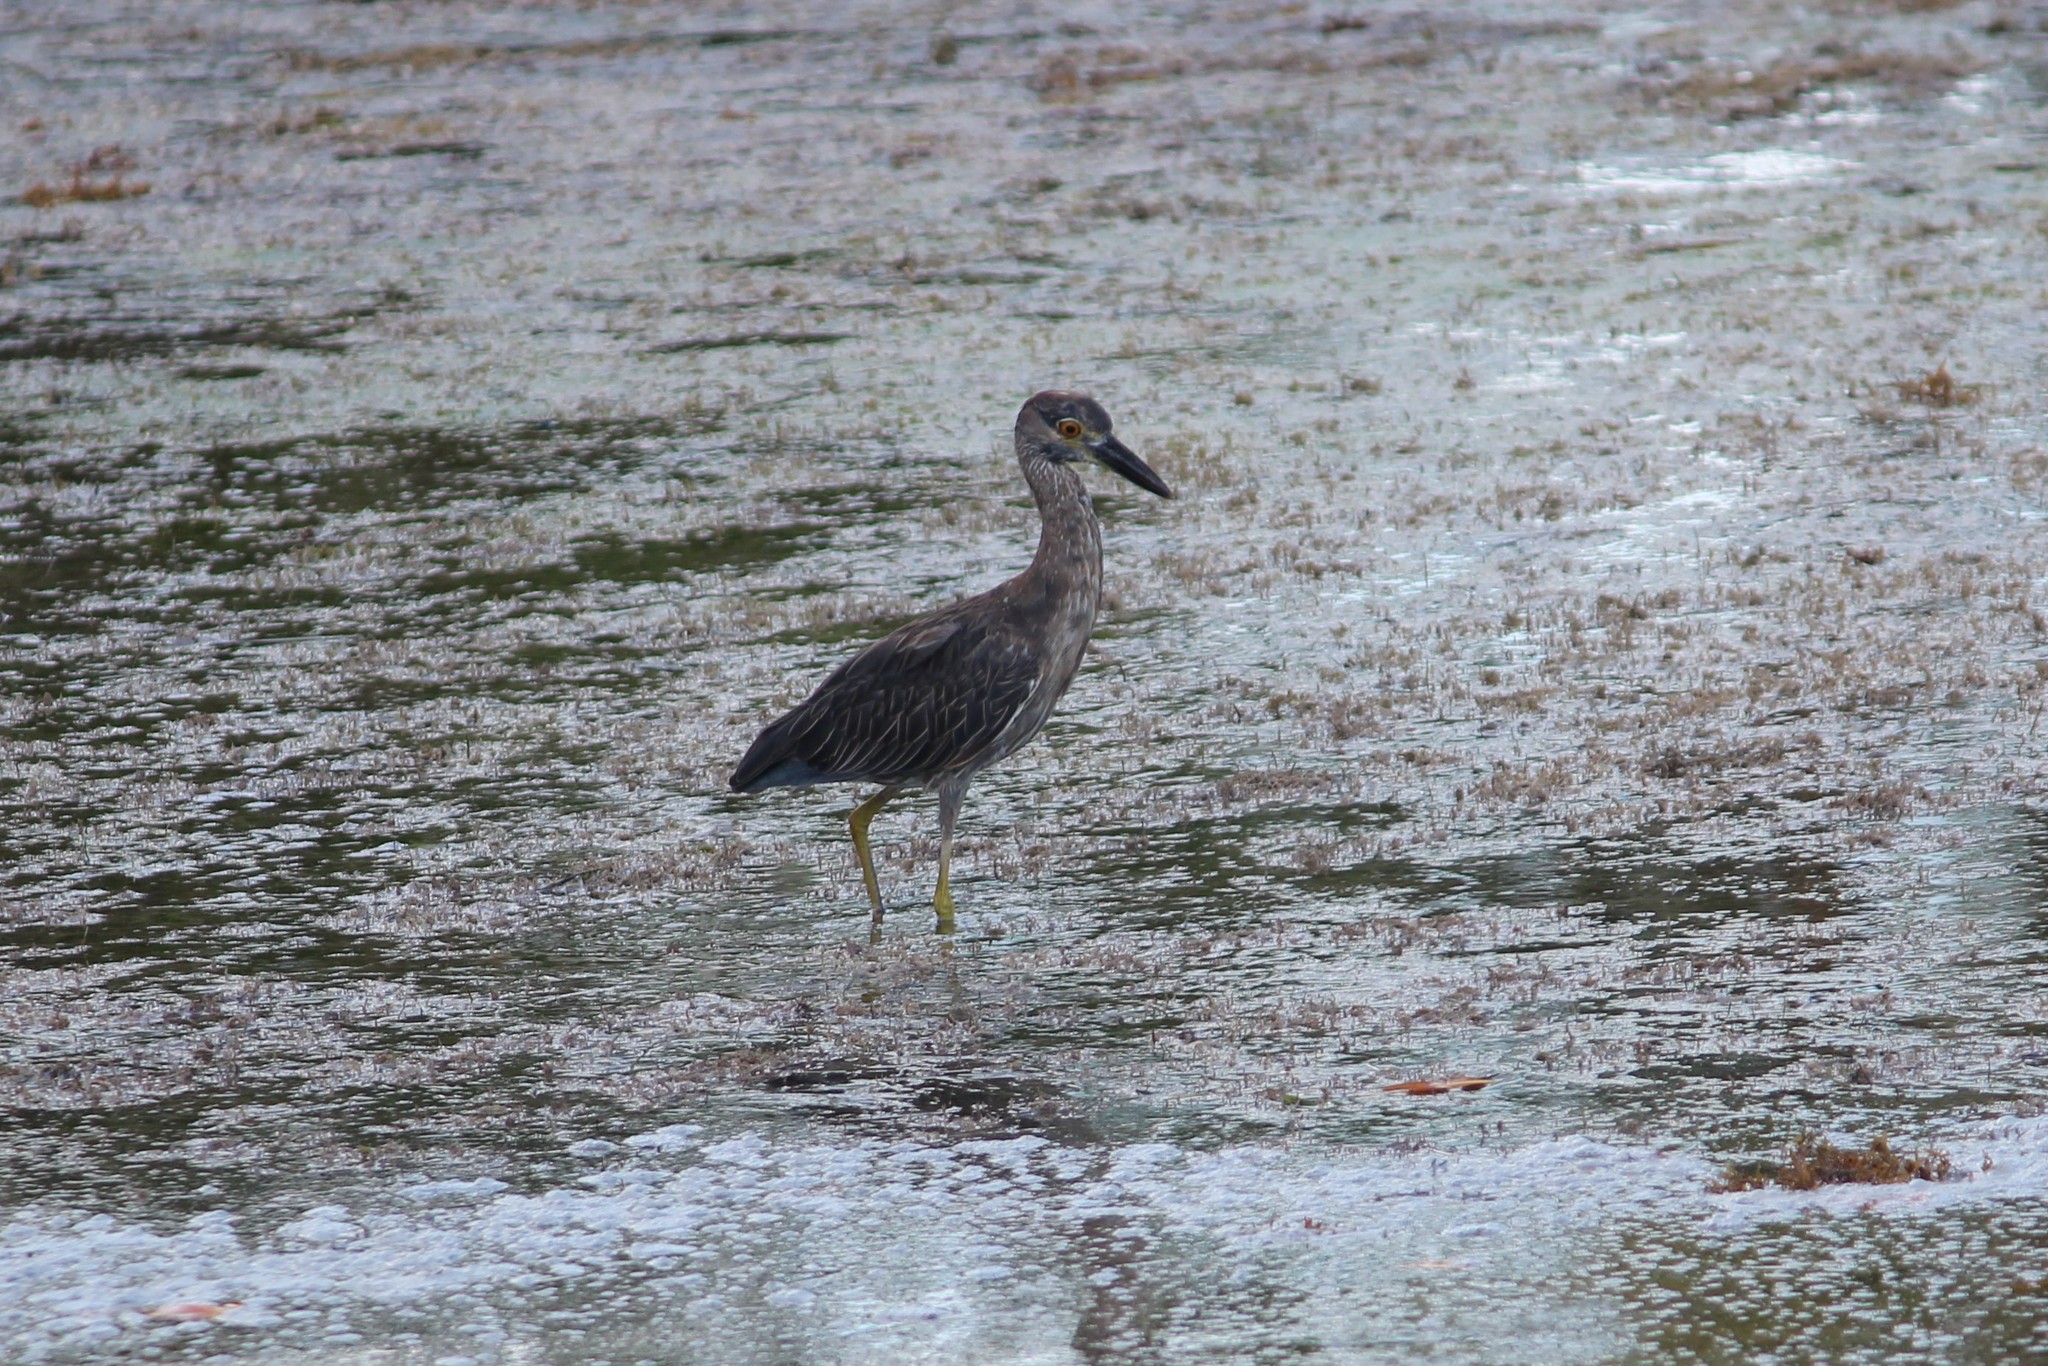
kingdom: Animalia
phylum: Chordata
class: Aves
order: Pelecaniformes
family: Ardeidae
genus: Nyctanassa
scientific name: Nyctanassa violacea
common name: Yellow-crowned night heron
